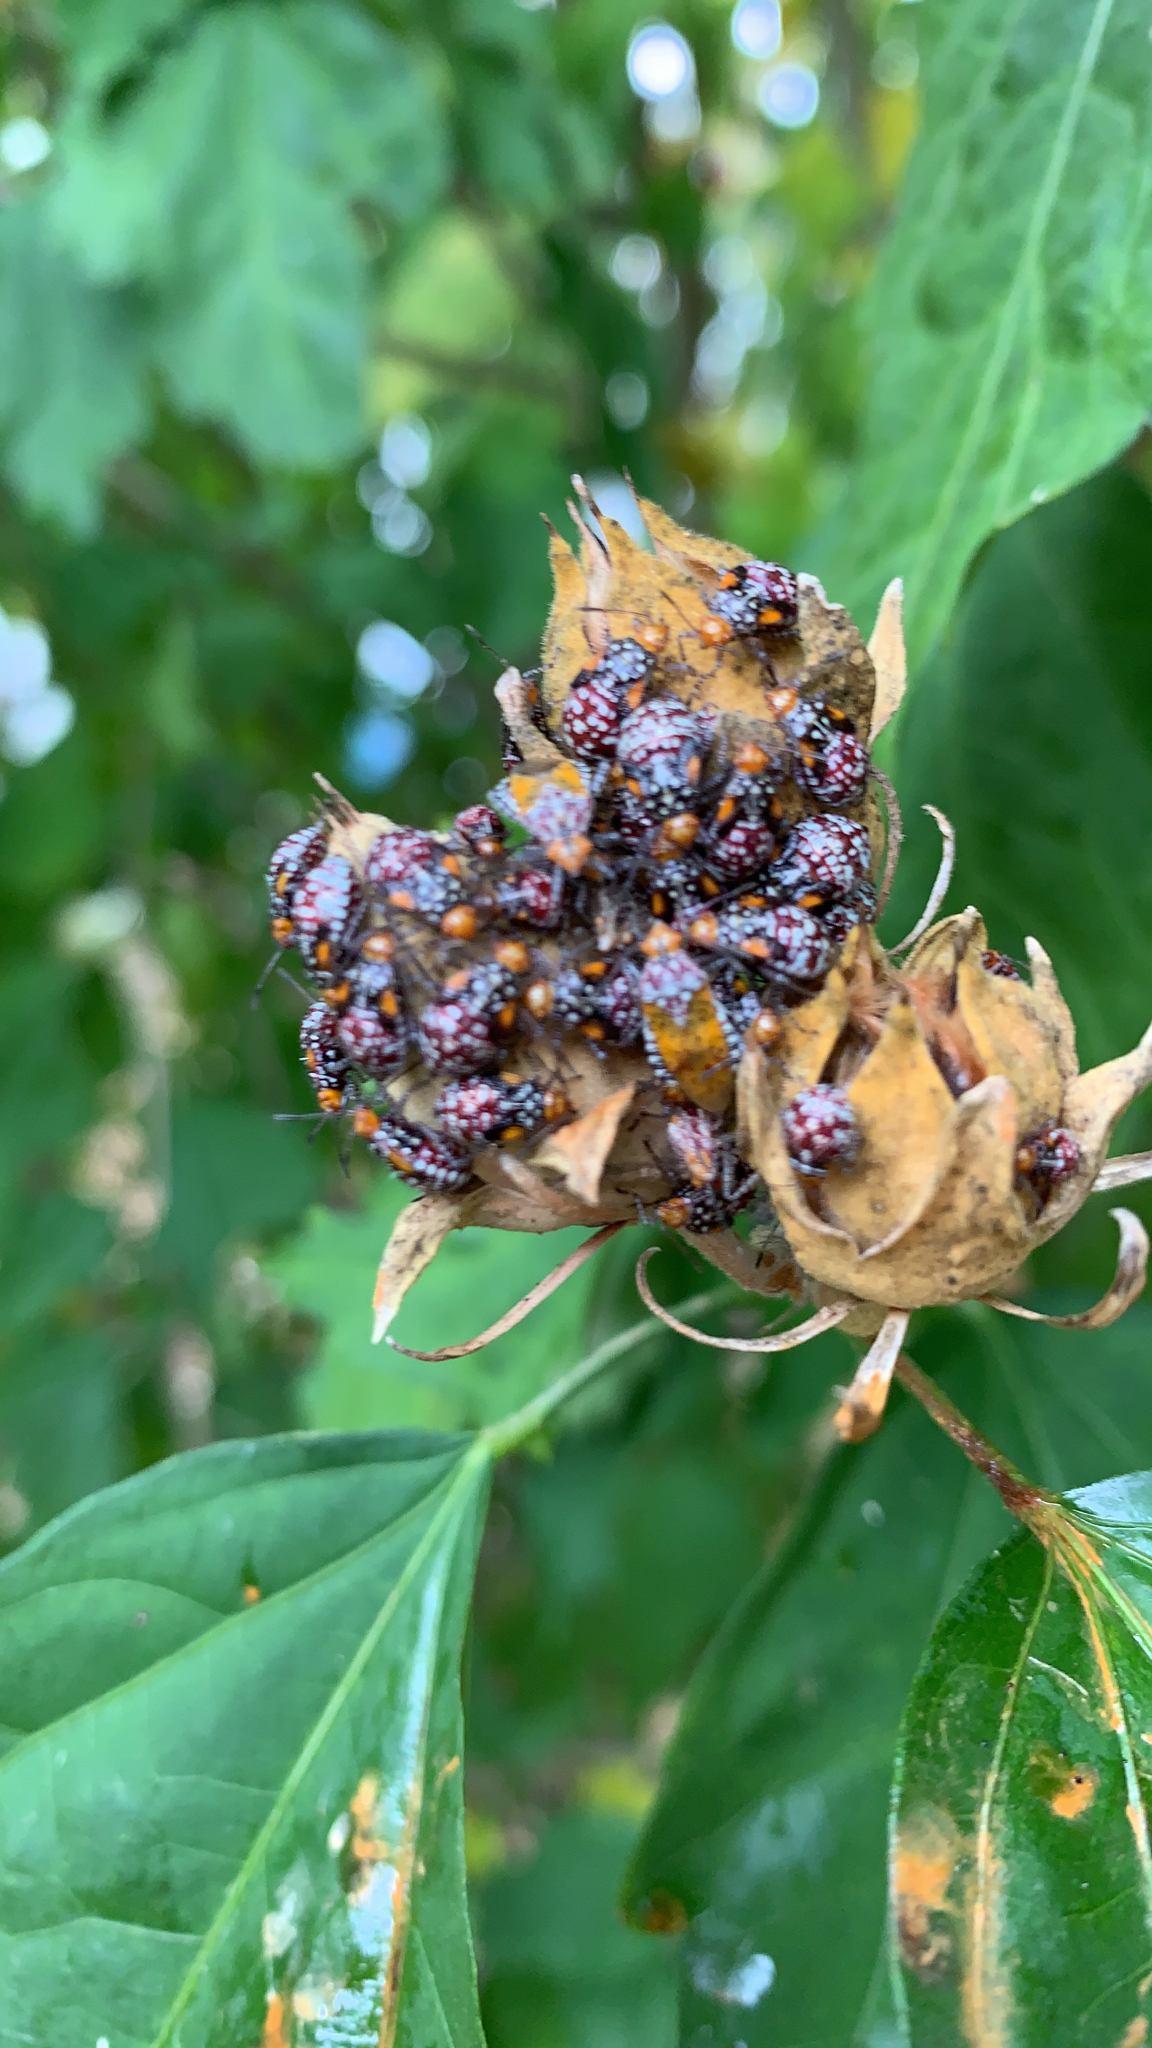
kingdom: Animalia
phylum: Arthropoda
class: Insecta
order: Hemiptera
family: Rhopalidae
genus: Niesthrea
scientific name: Niesthrea louisianica
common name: Scentless plant bug
